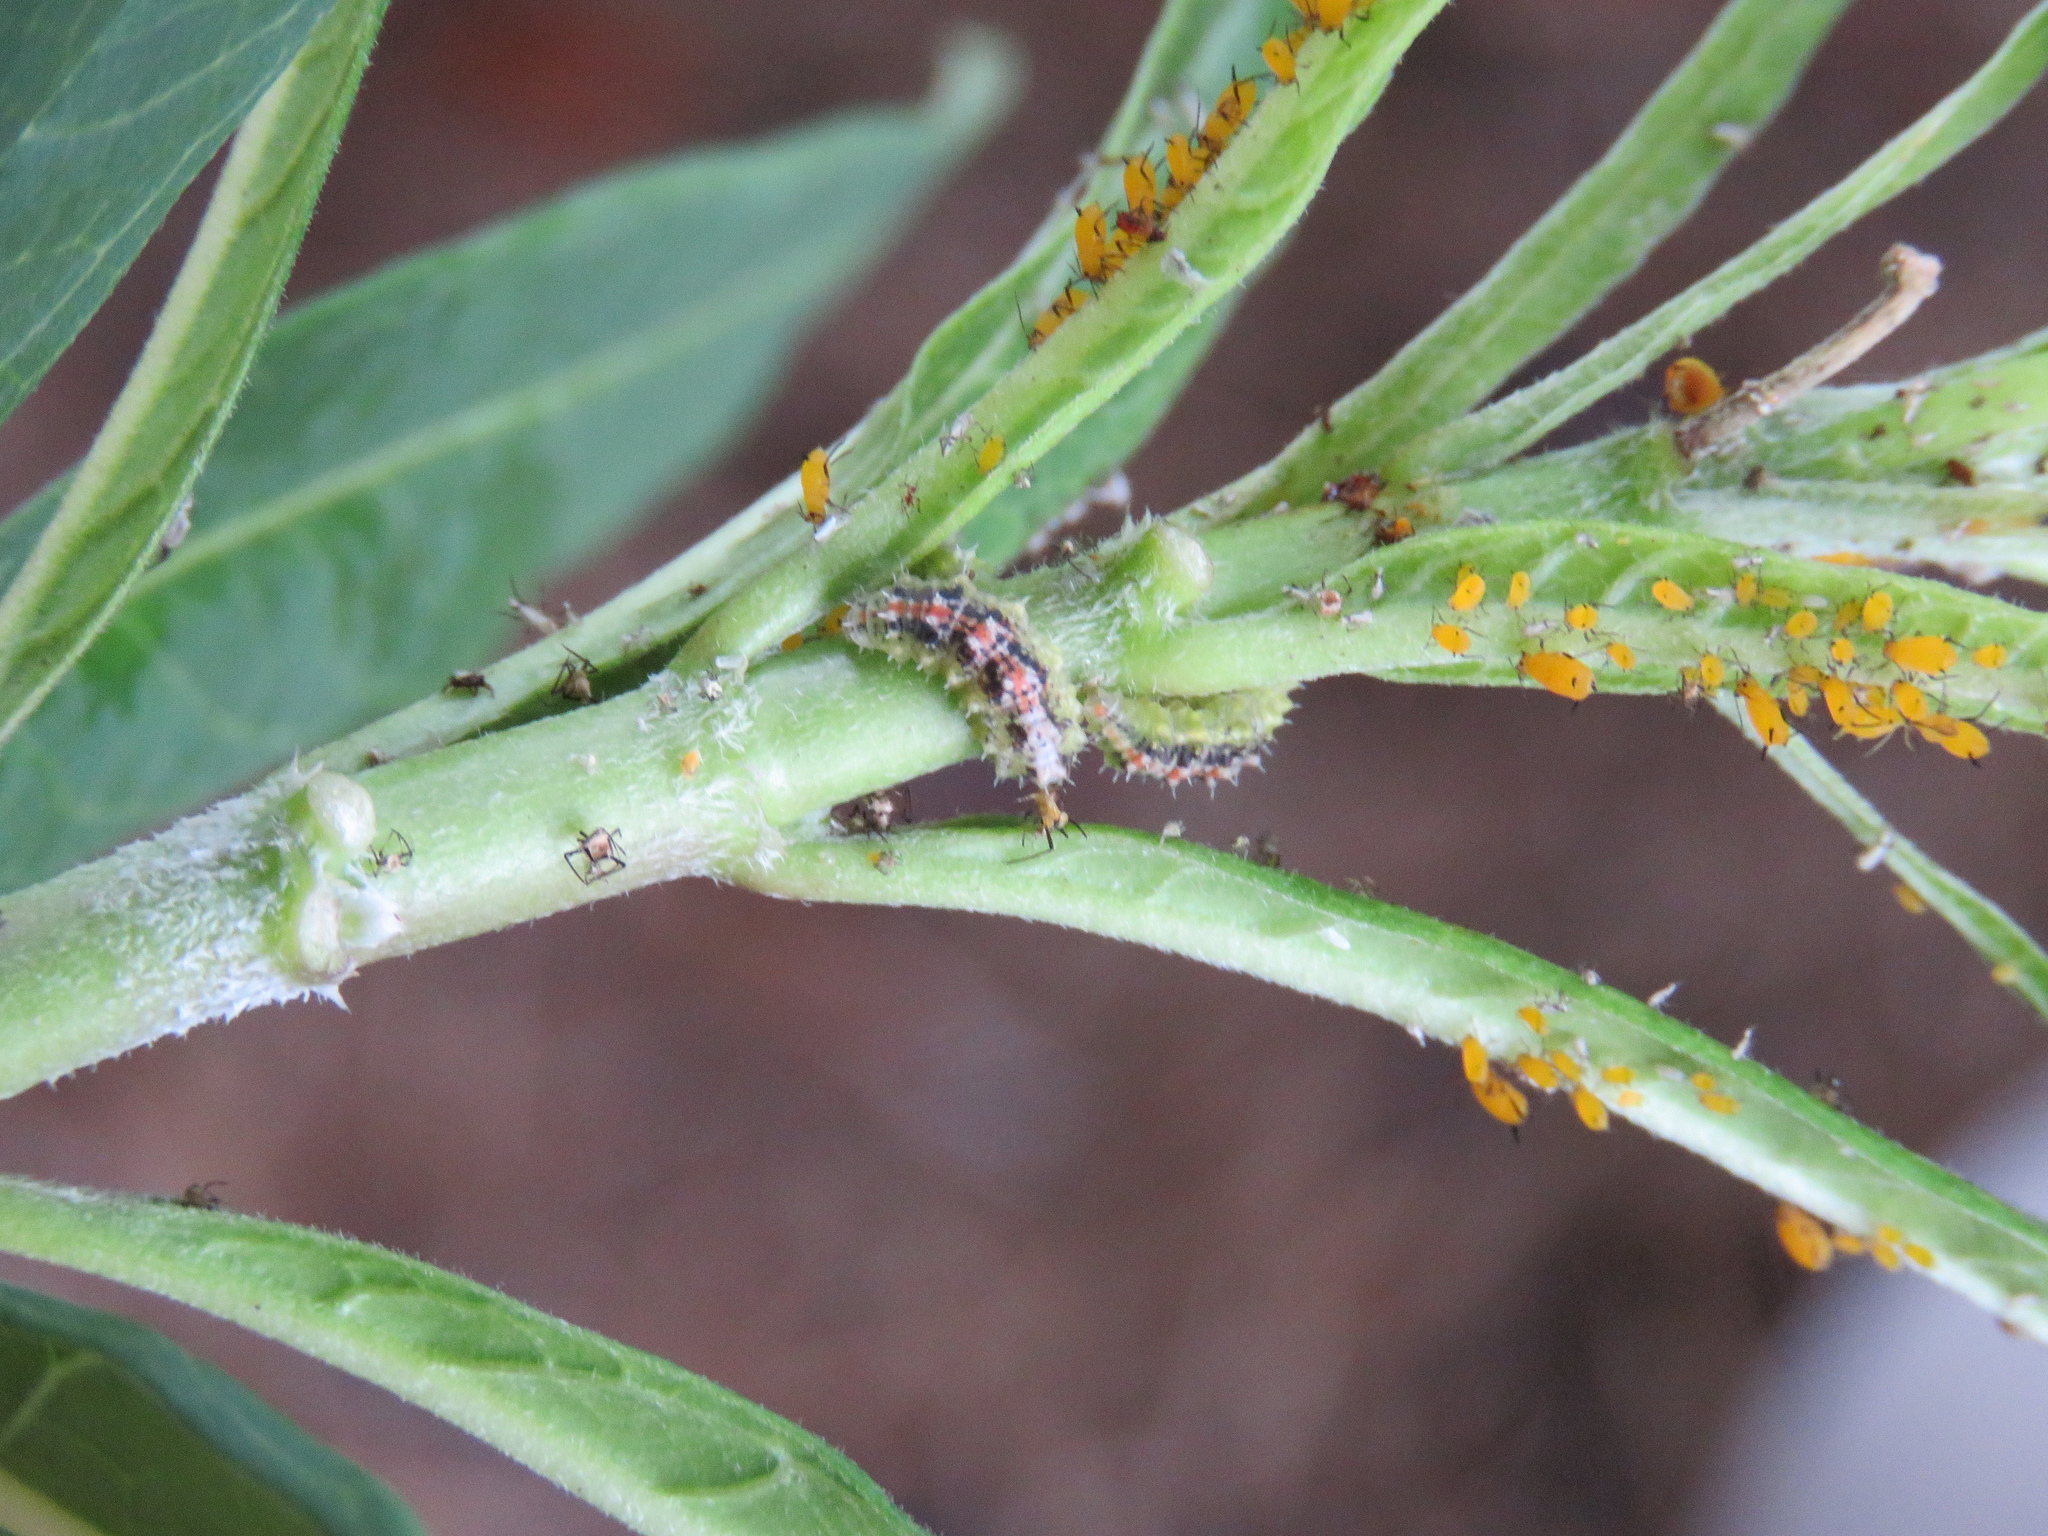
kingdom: Animalia
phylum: Arthropoda
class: Insecta
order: Hemiptera
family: Aphididae
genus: Aphis
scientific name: Aphis nerii
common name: Oleander aphid
